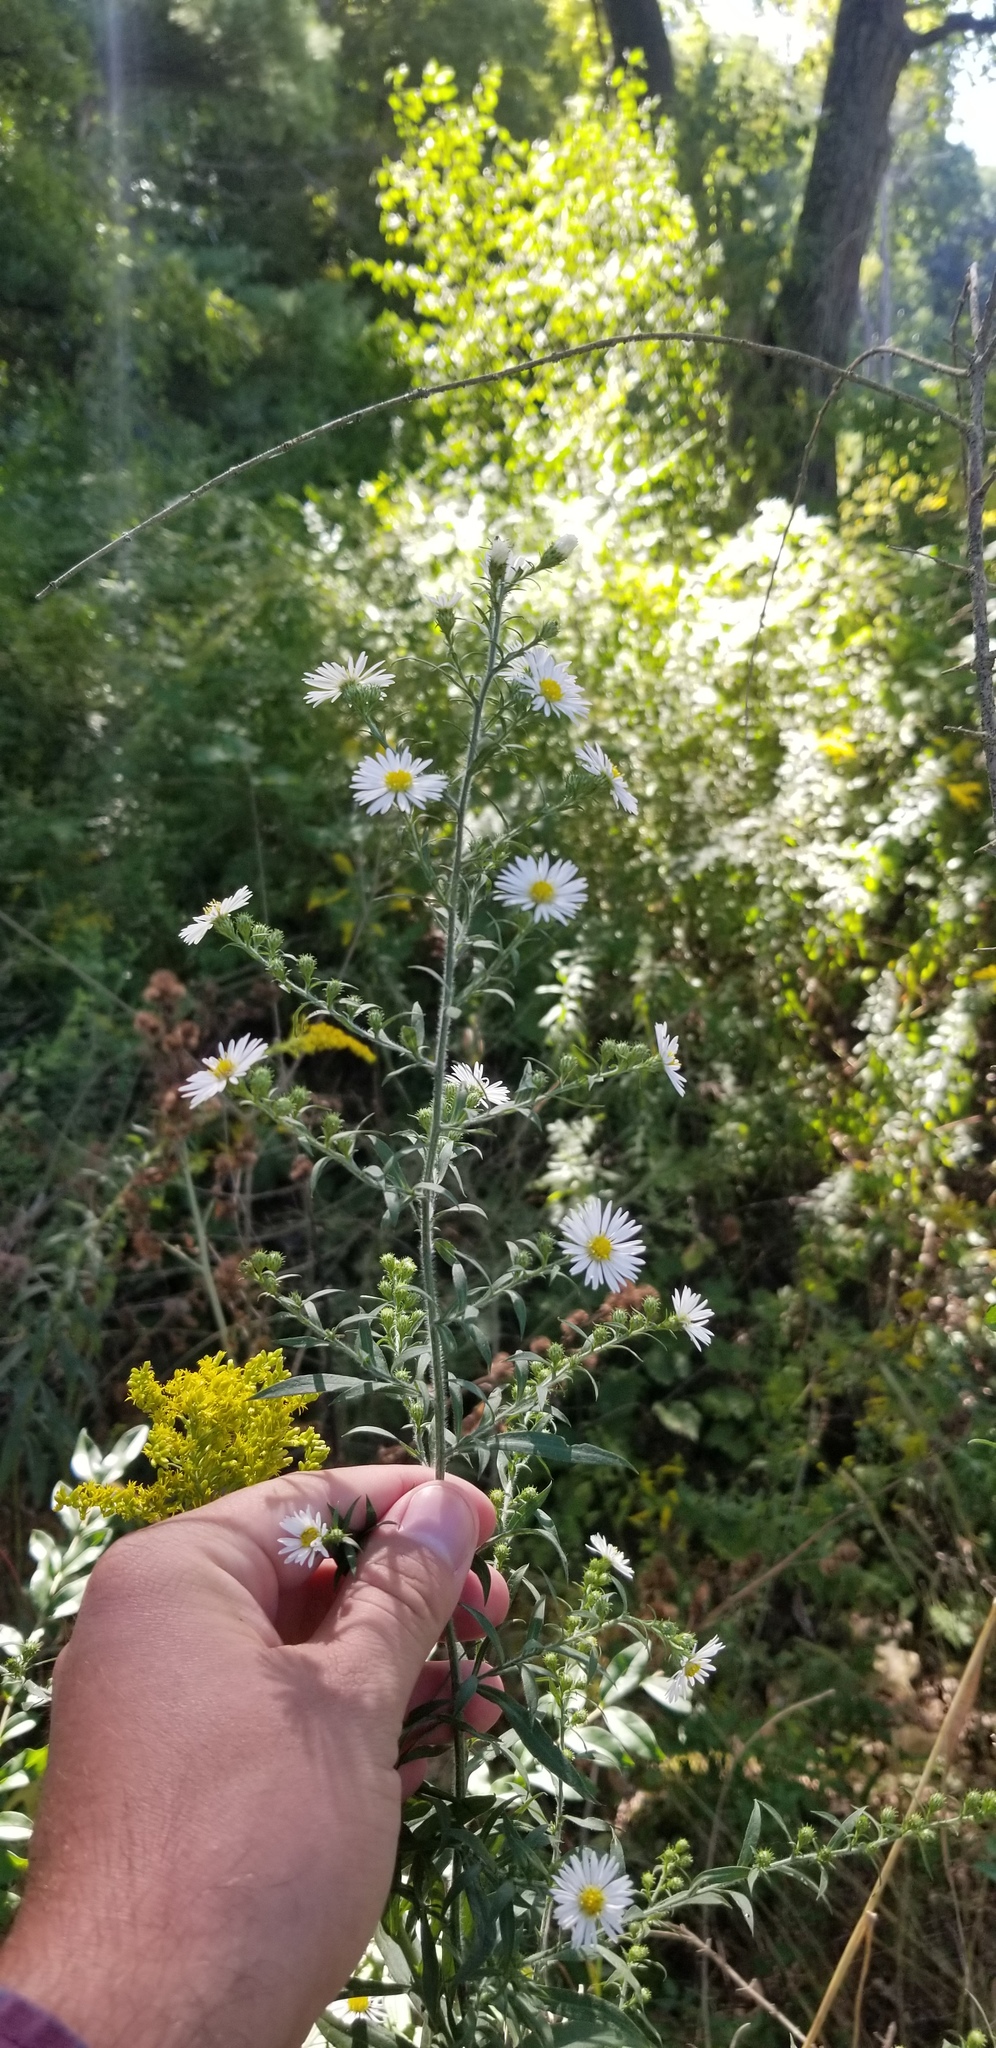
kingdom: Plantae
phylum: Tracheophyta
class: Magnoliopsida
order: Asterales
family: Asteraceae
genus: Symphyotrichum
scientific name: Symphyotrichum pilosum
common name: Awl aster
